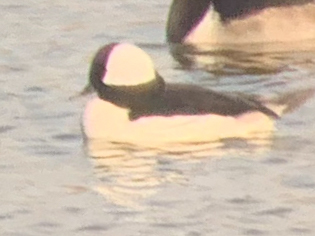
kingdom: Animalia
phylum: Chordata
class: Aves
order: Anseriformes
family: Anatidae
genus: Bucephala
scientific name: Bucephala albeola
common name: Bufflehead
